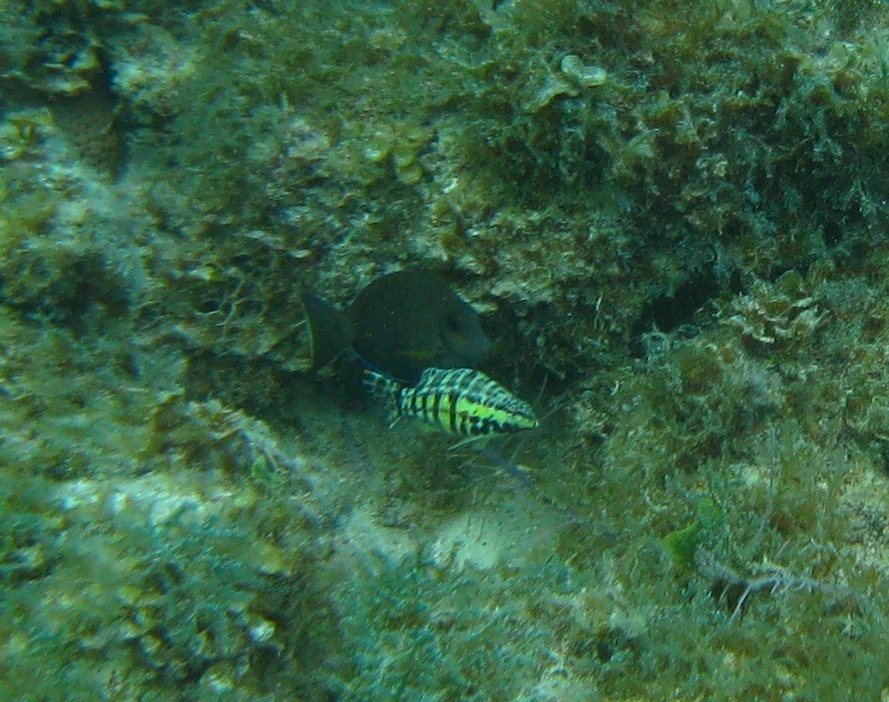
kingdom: Animalia
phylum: Chordata
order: Perciformes
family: Serranidae
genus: Serranus
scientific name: Serranus tigrinus
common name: Harlequin bass
